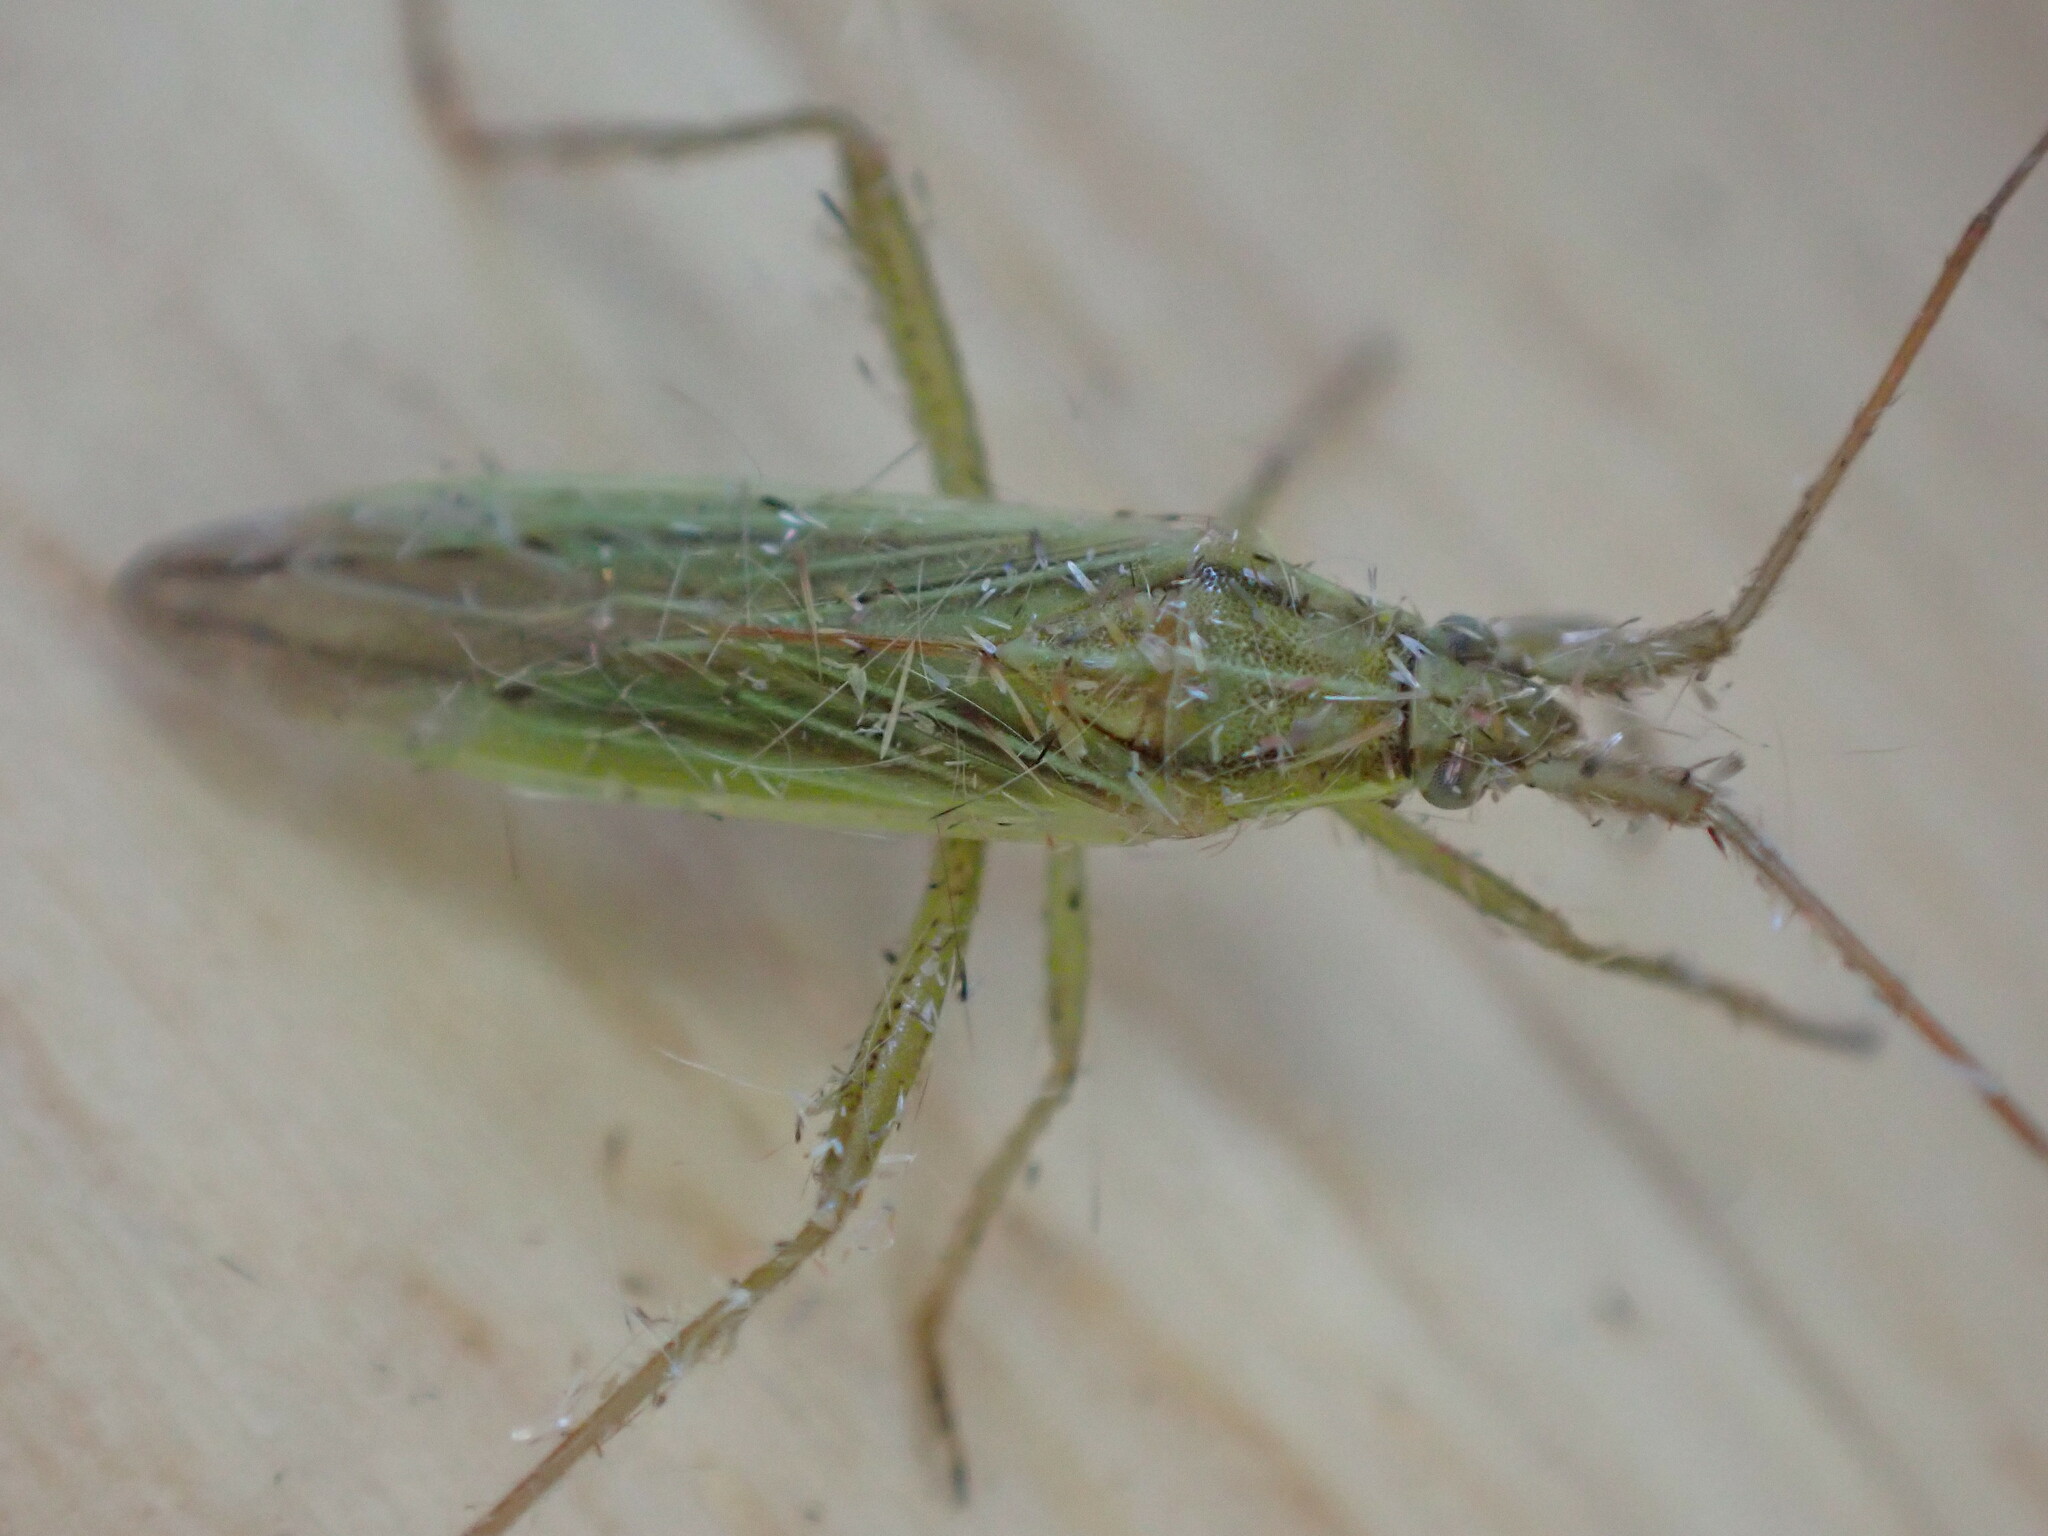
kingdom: Animalia
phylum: Arthropoda
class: Insecta
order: Hemiptera
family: Miridae
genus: Stenodema
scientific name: Stenodema calcarata
